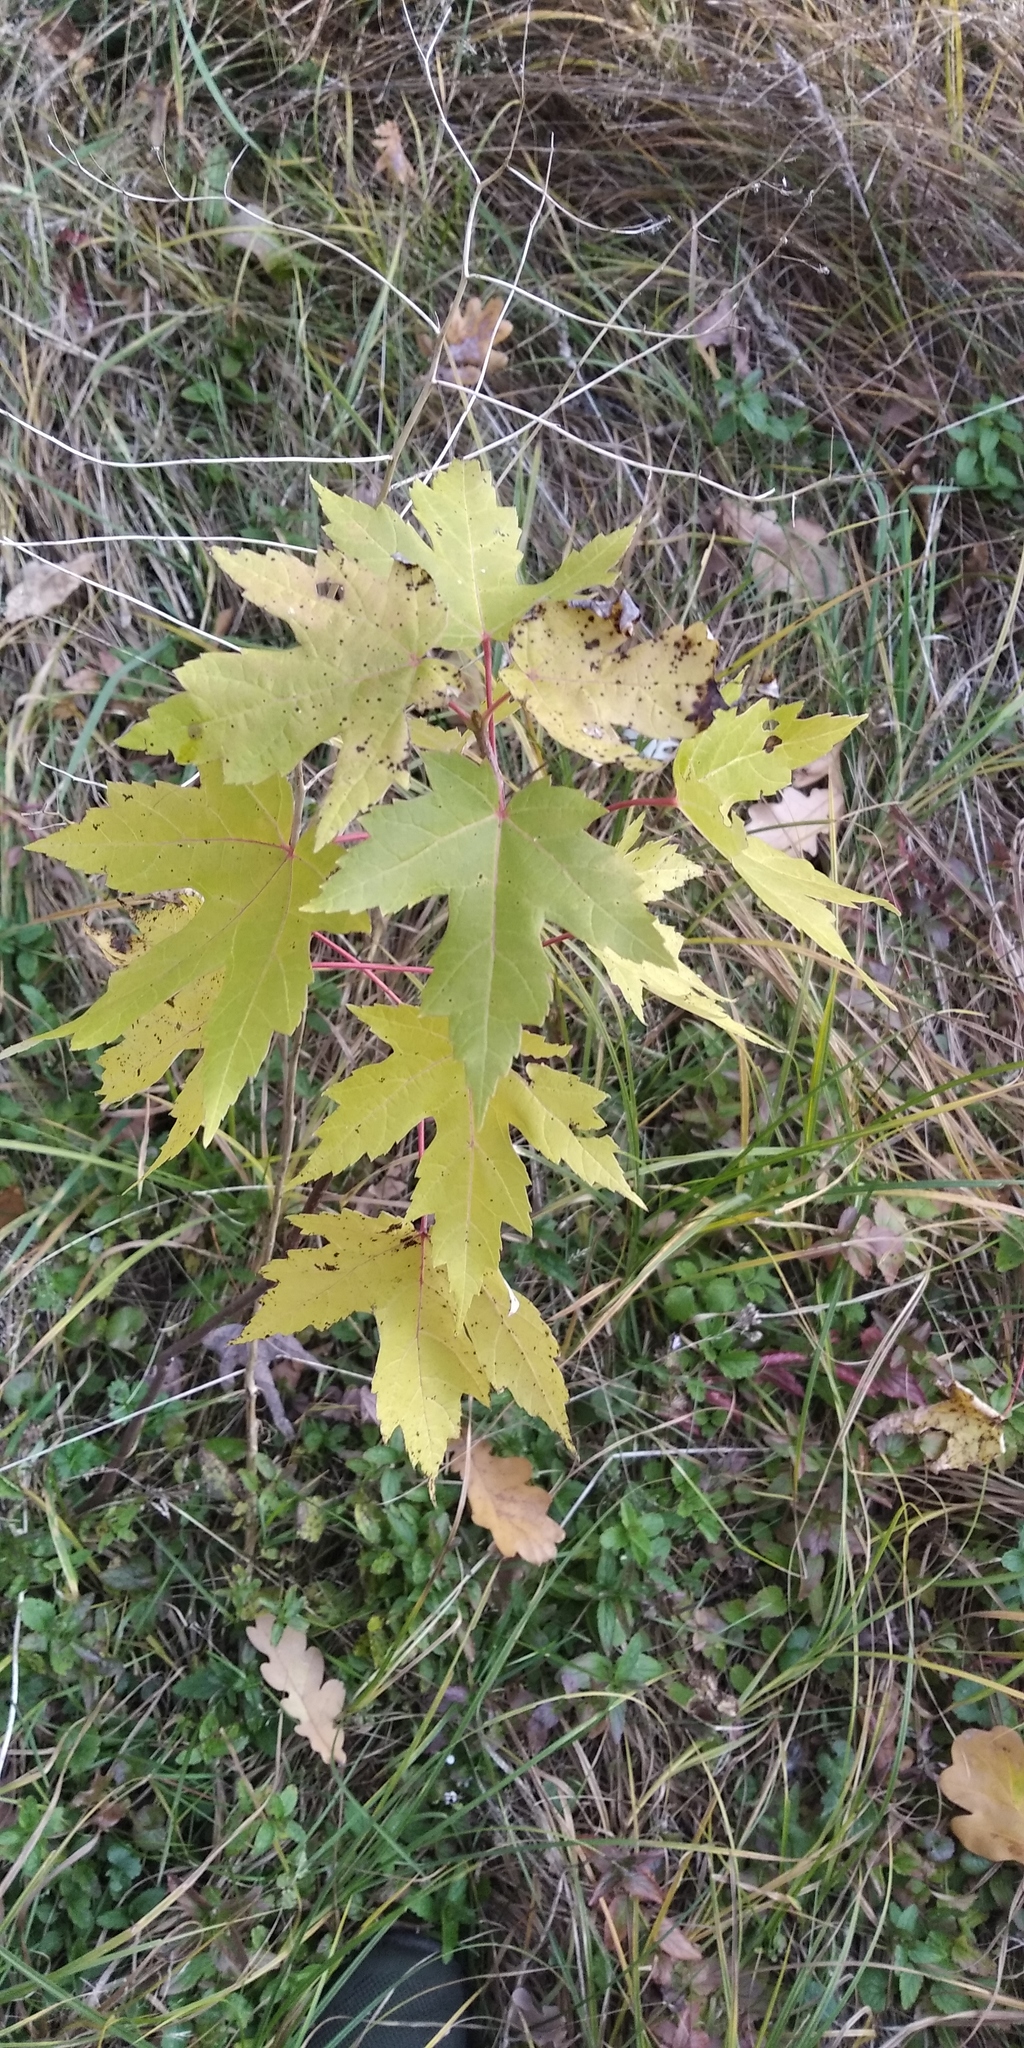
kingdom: Plantae
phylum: Tracheophyta
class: Magnoliopsida
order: Sapindales
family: Sapindaceae
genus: Acer
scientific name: Acer saccharinum
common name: Silver maple
